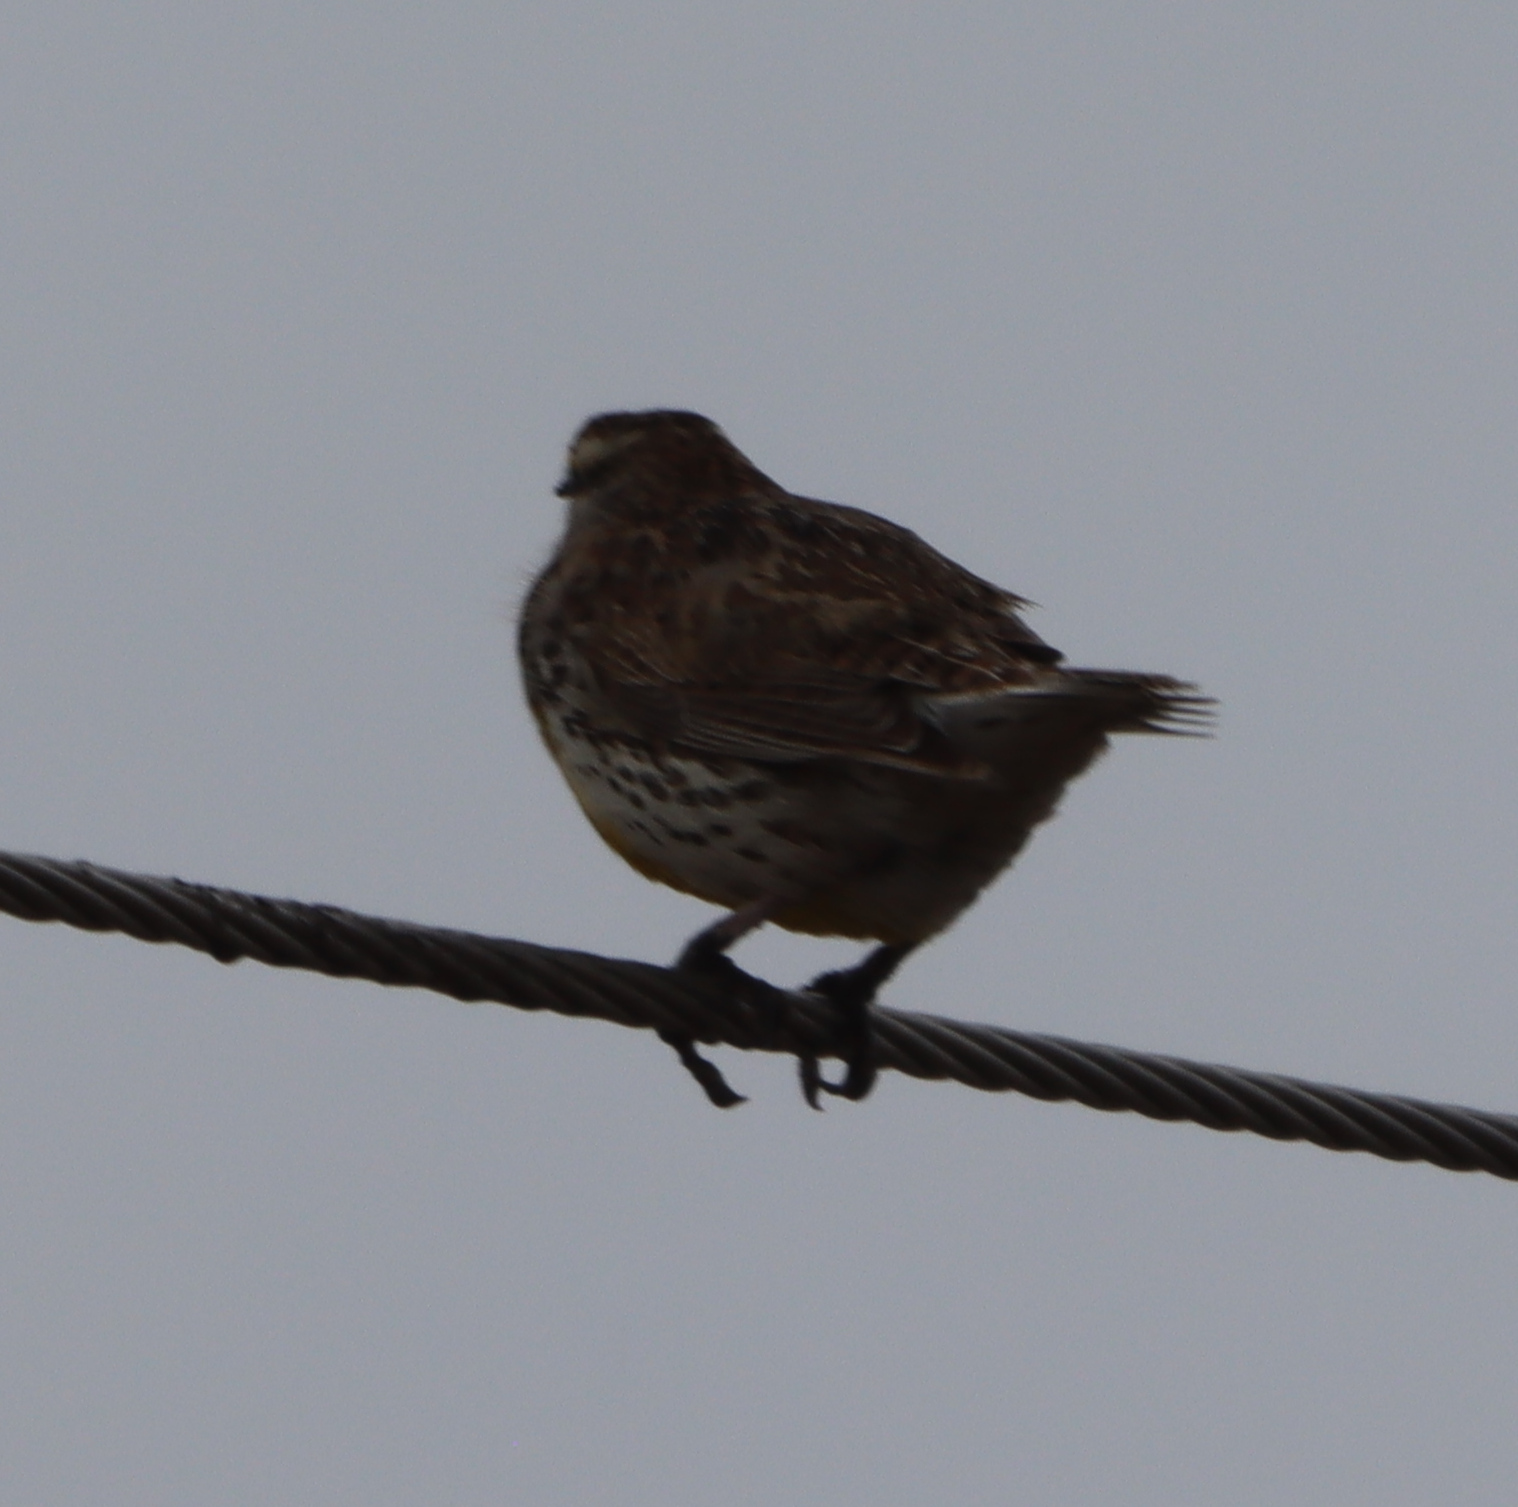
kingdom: Animalia
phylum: Chordata
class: Aves
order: Passeriformes
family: Icteridae
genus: Sturnella
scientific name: Sturnella neglecta
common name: Western meadowlark
